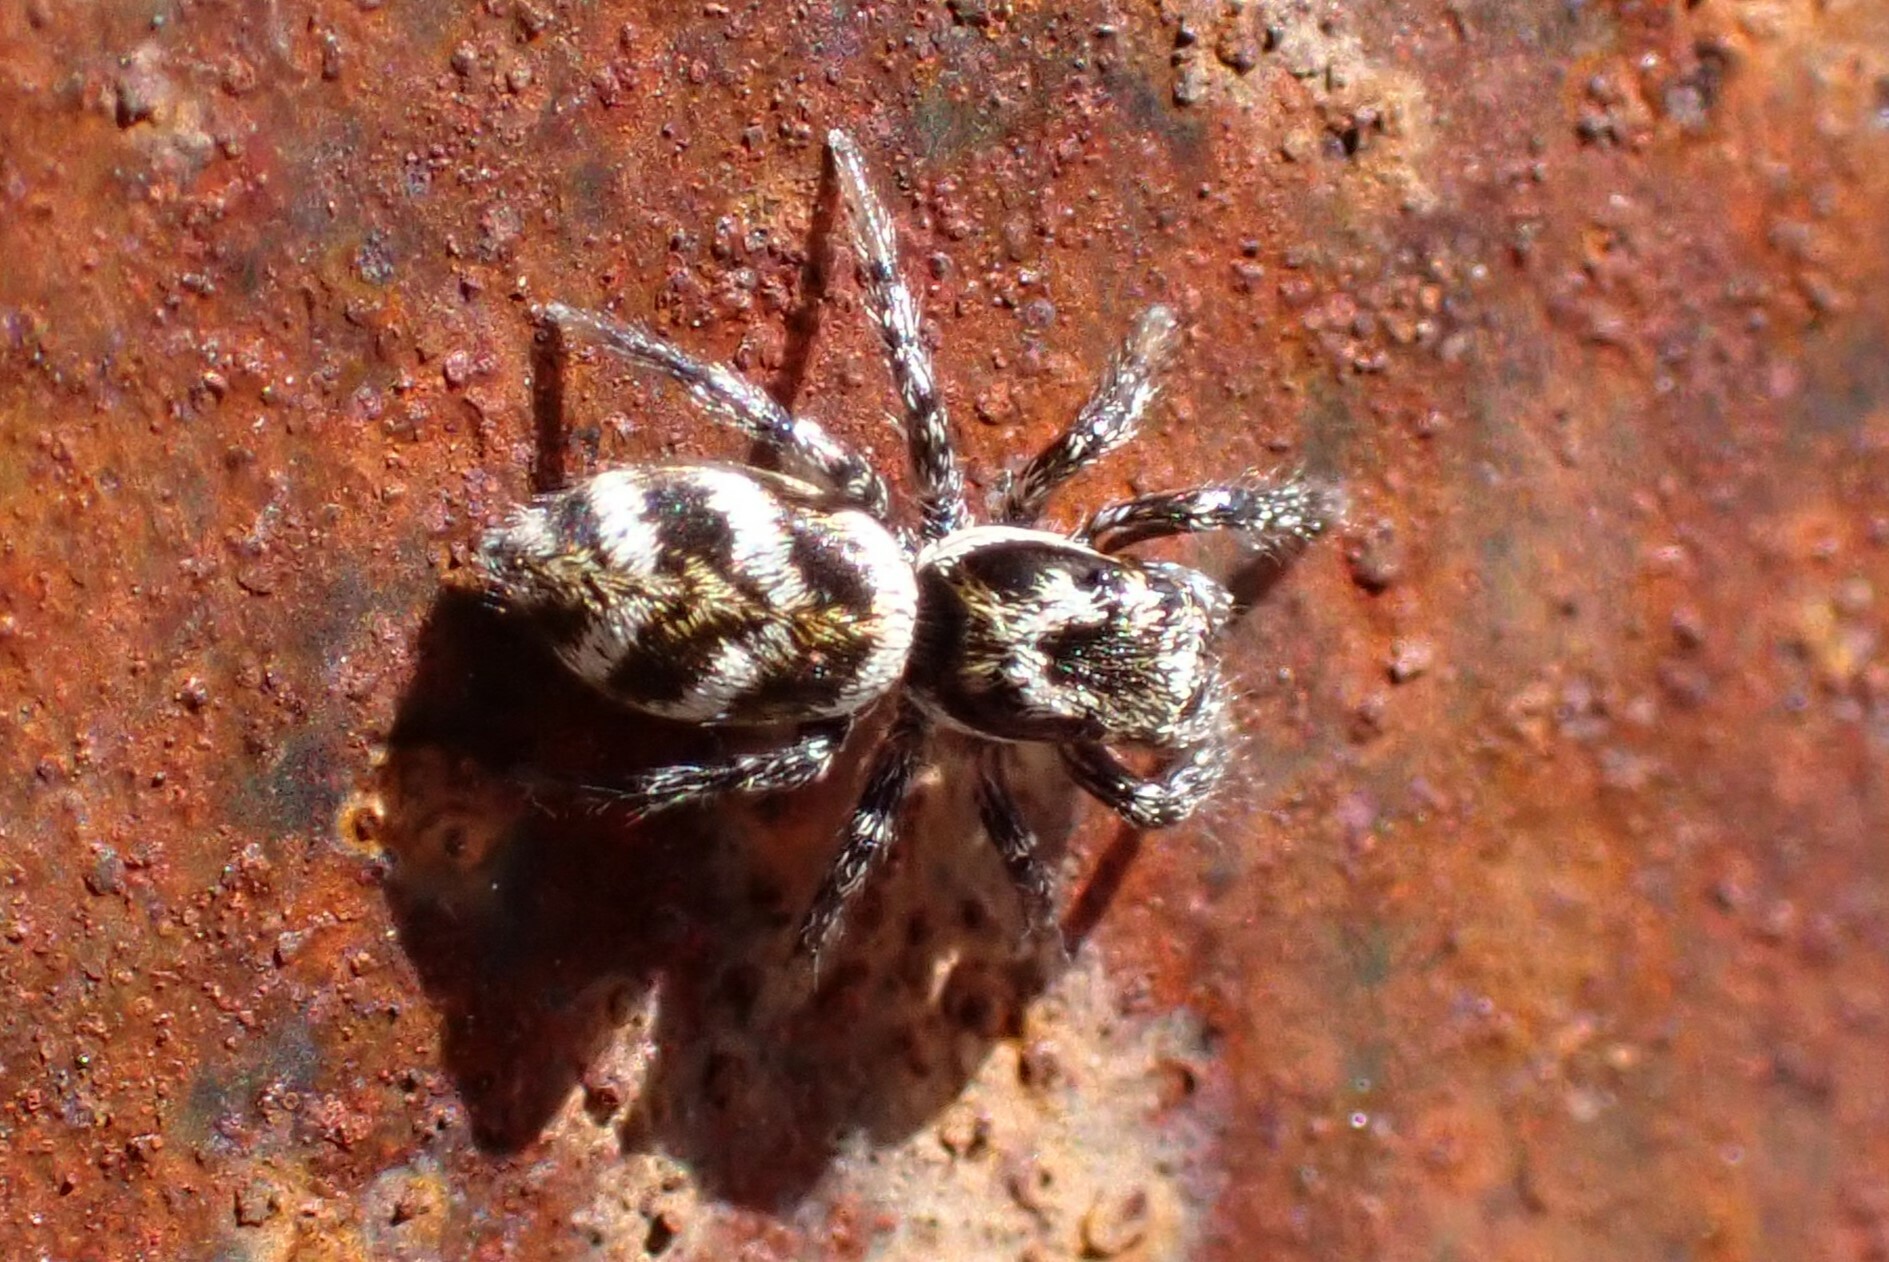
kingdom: Animalia
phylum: Arthropoda
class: Arachnida
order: Araneae
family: Salticidae
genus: Salticus
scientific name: Salticus scenicus
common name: Zebra jumper
